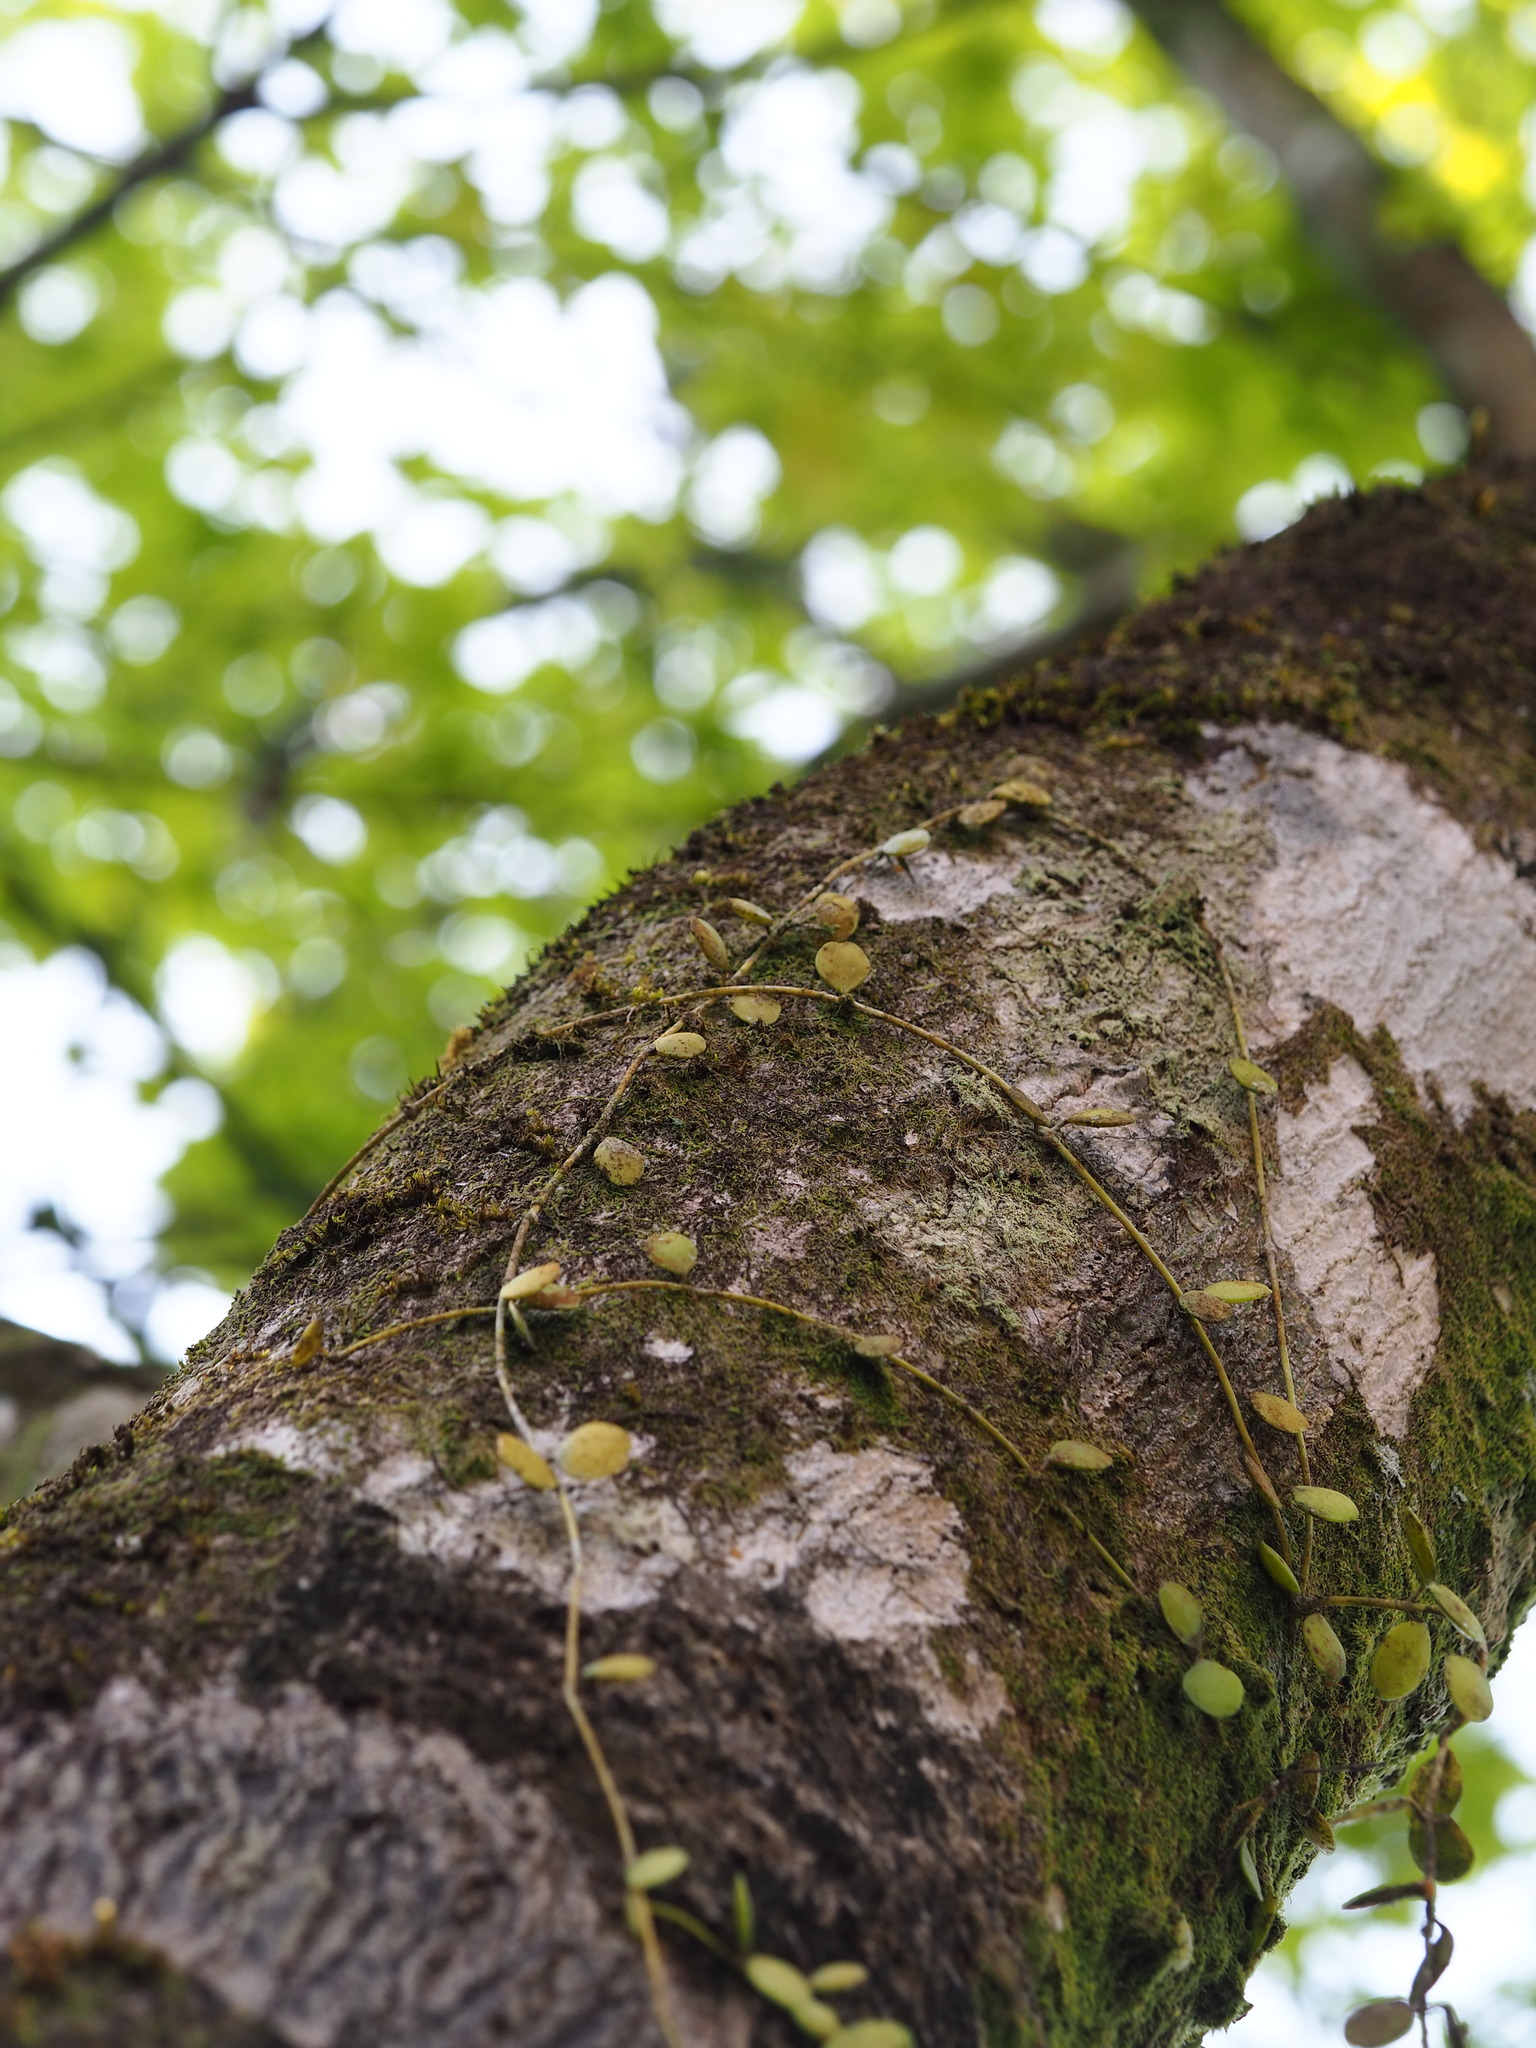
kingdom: Plantae
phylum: Tracheophyta
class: Magnoliopsida
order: Gentianales
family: Apocynaceae
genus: Dischidia
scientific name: Dischidia formosana
